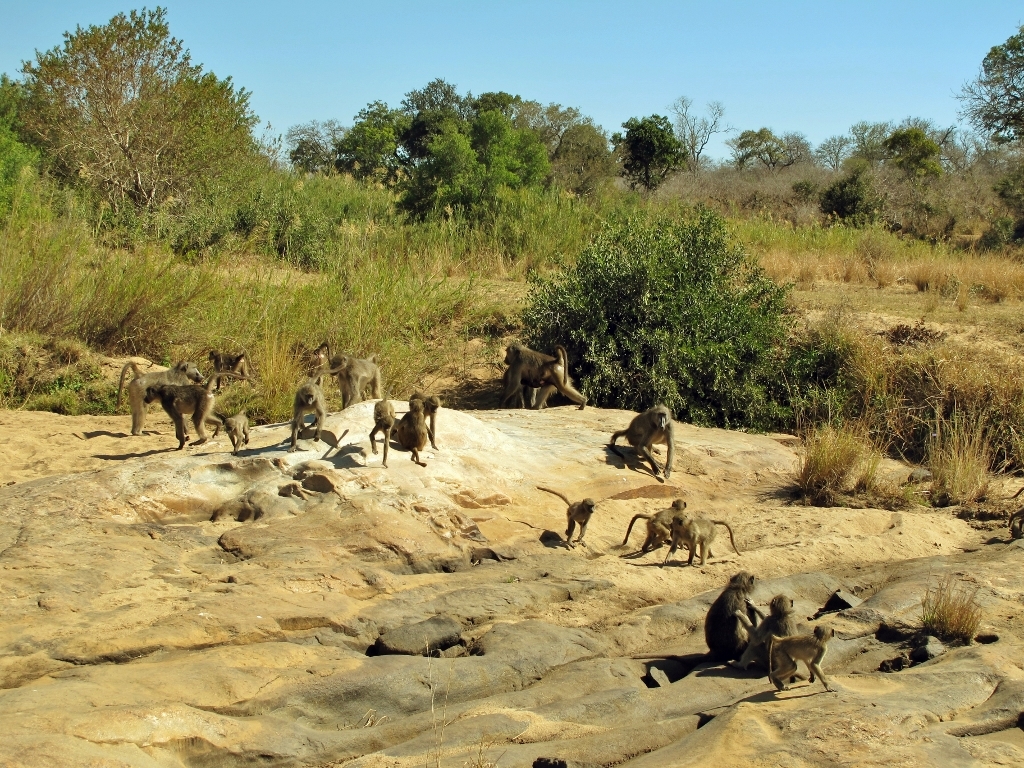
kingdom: Animalia
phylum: Chordata
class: Mammalia
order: Primates
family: Cercopithecidae
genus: Papio
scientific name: Papio ursinus
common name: Chacma baboon
